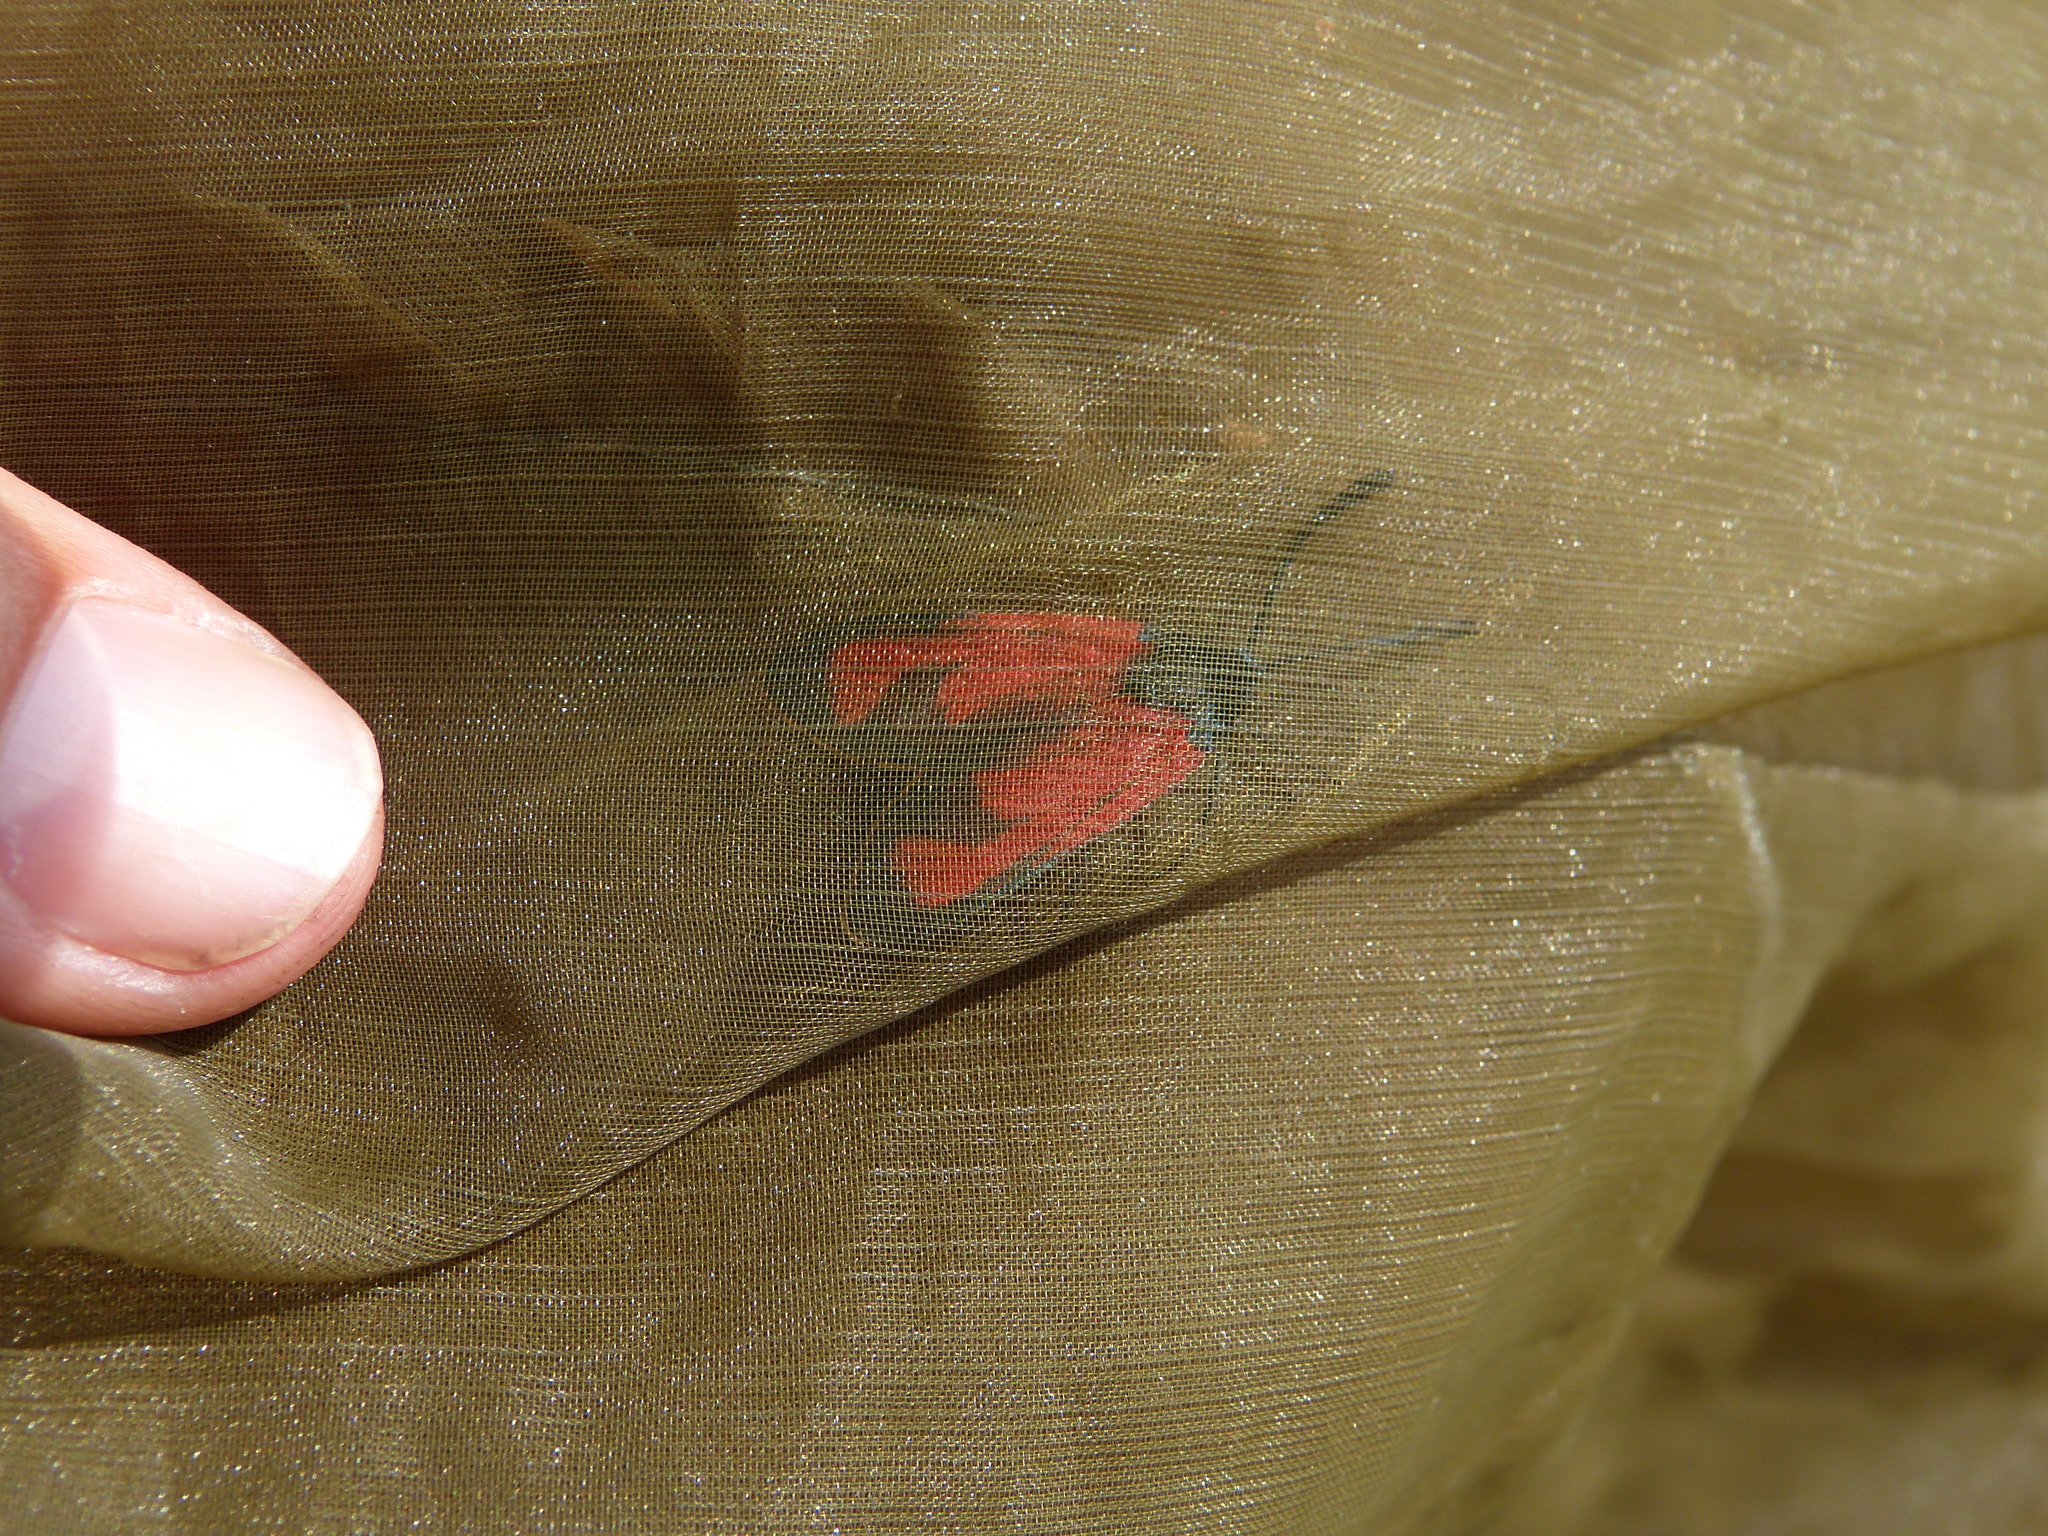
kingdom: Animalia
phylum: Arthropoda
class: Insecta
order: Lepidoptera
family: Zygaenidae
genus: Zygaena
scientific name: Zygaena erythrus
